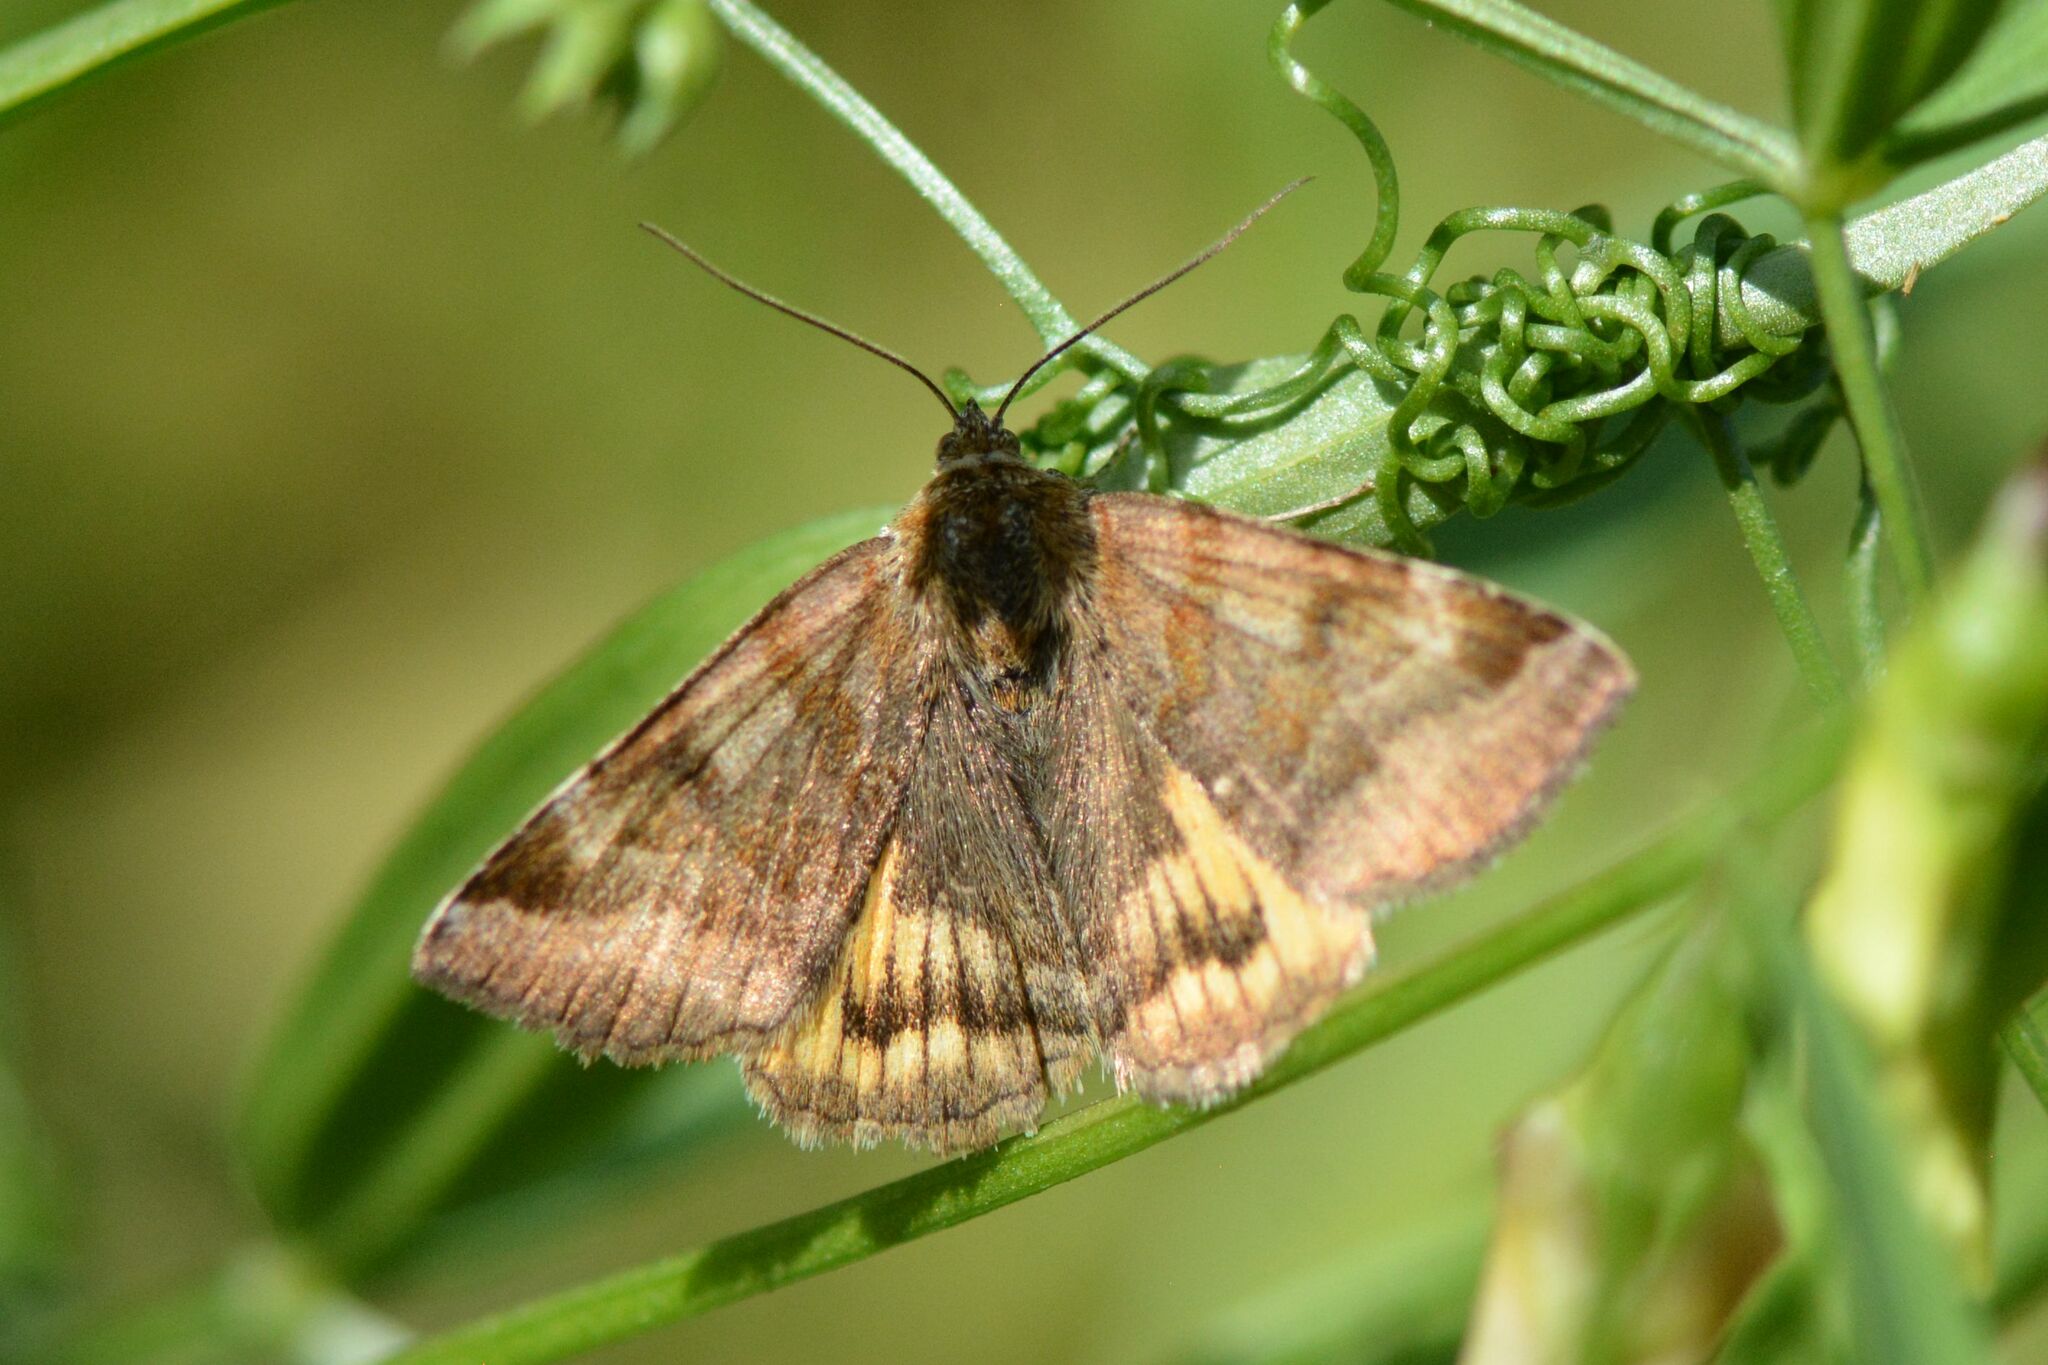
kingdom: Animalia
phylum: Arthropoda
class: Insecta
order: Lepidoptera
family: Erebidae
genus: Euclidia
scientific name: Euclidia glyphica
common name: Burnet companion
